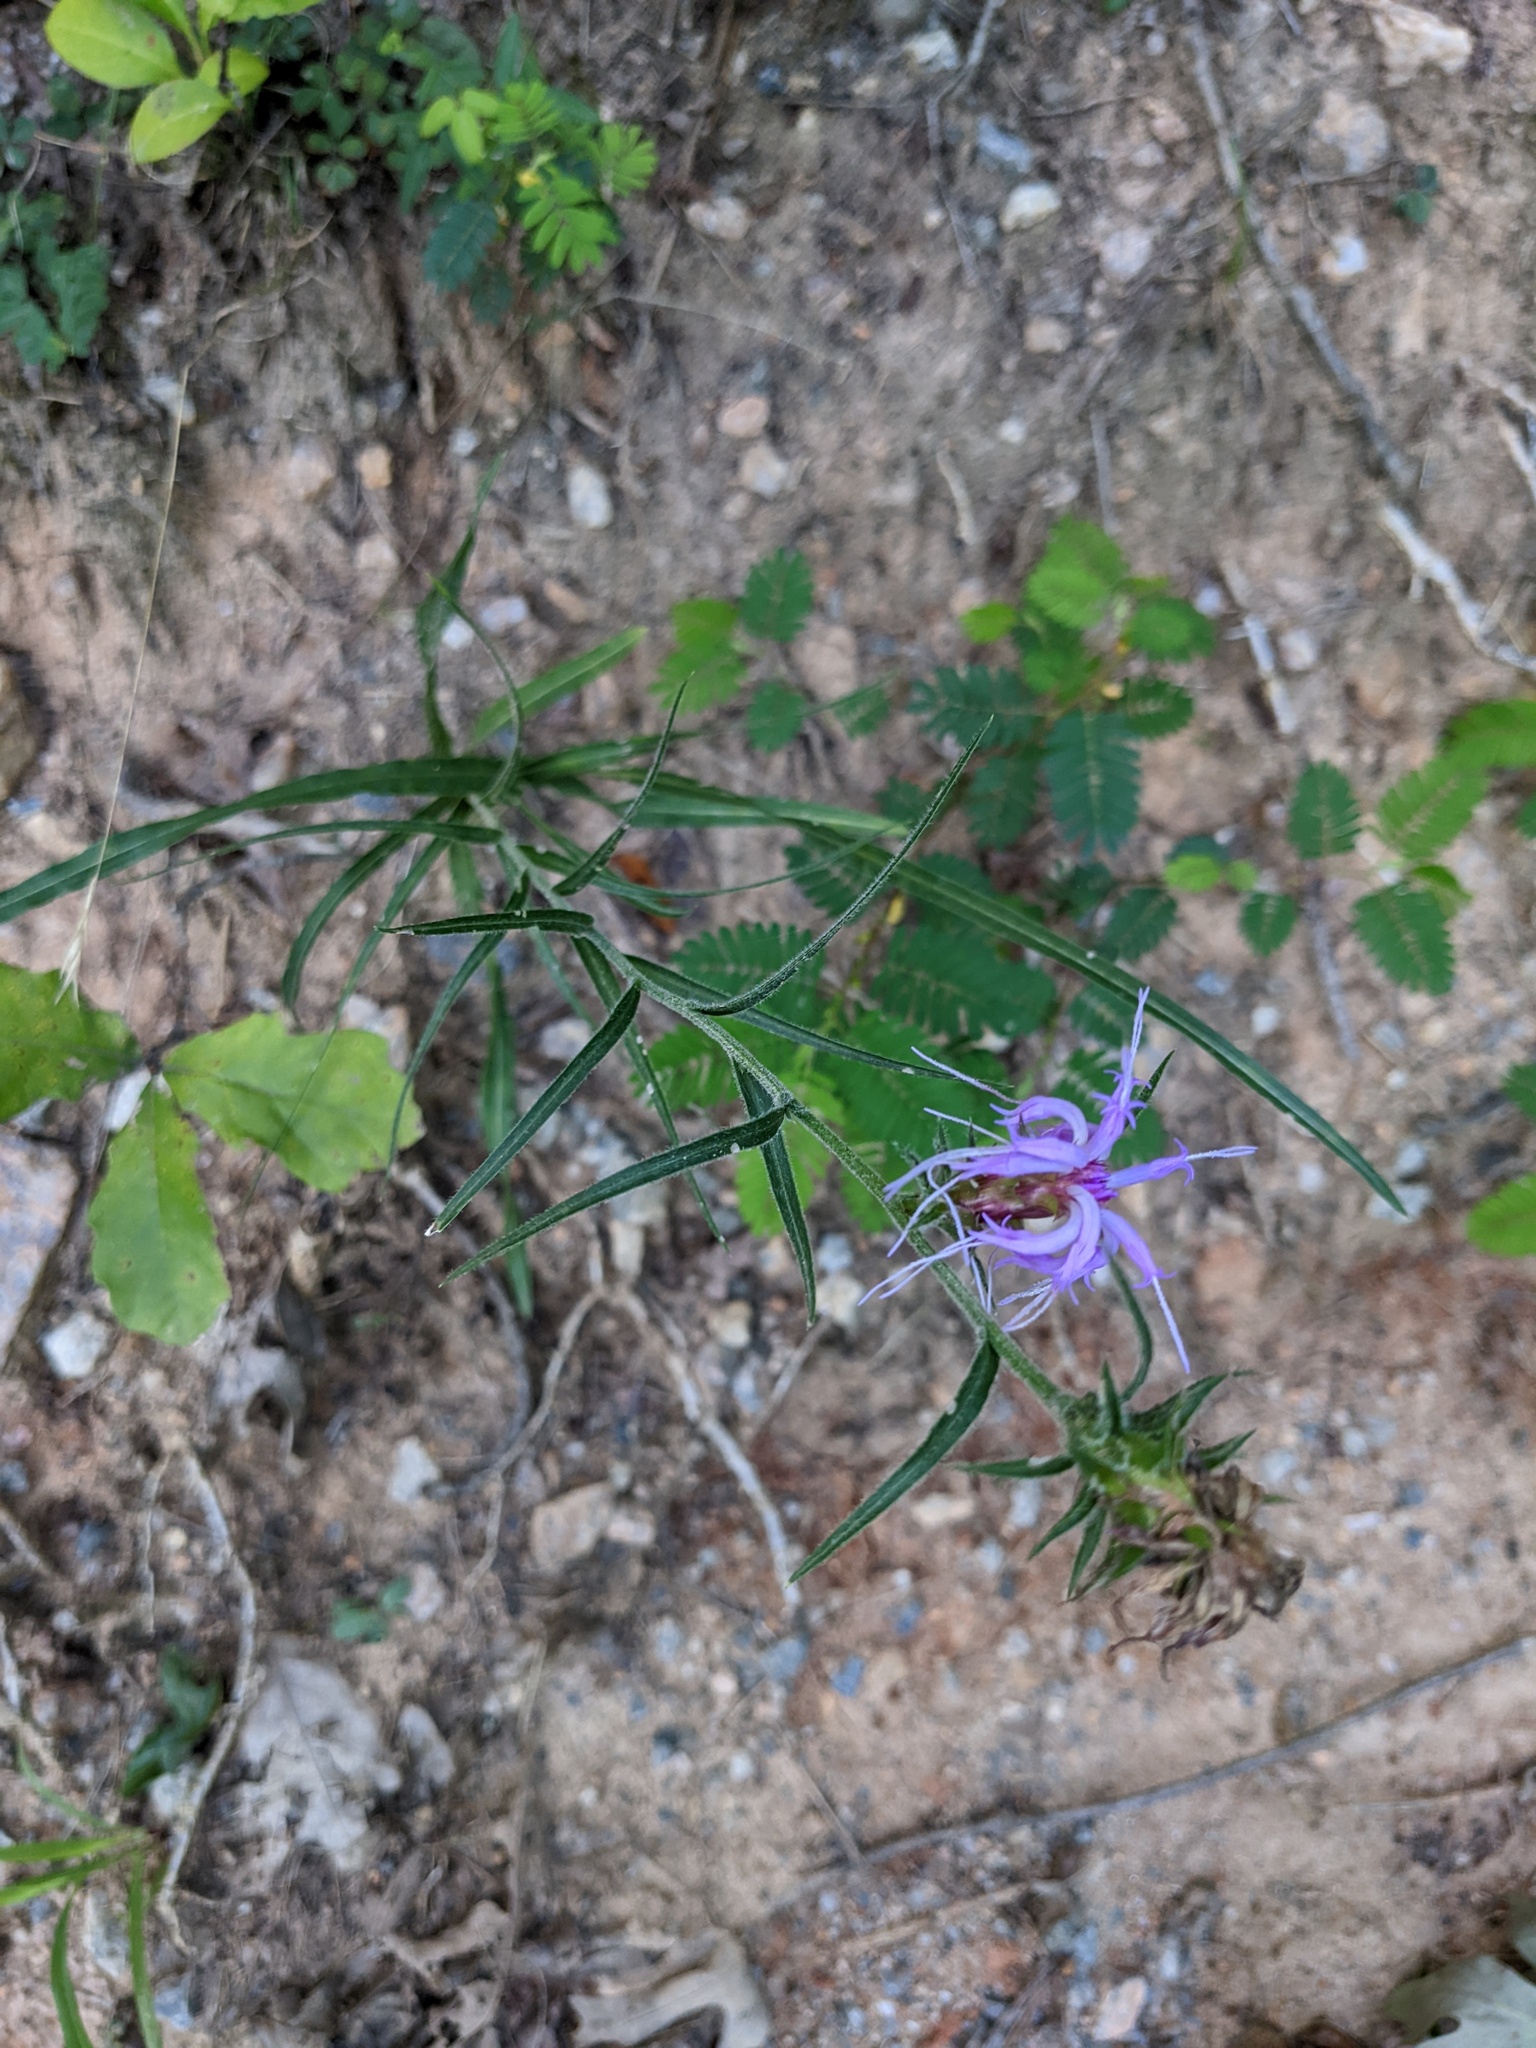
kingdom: Plantae
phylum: Tracheophyta
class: Magnoliopsida
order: Asterales
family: Asteraceae
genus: Liatris
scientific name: Liatris squarrosa
